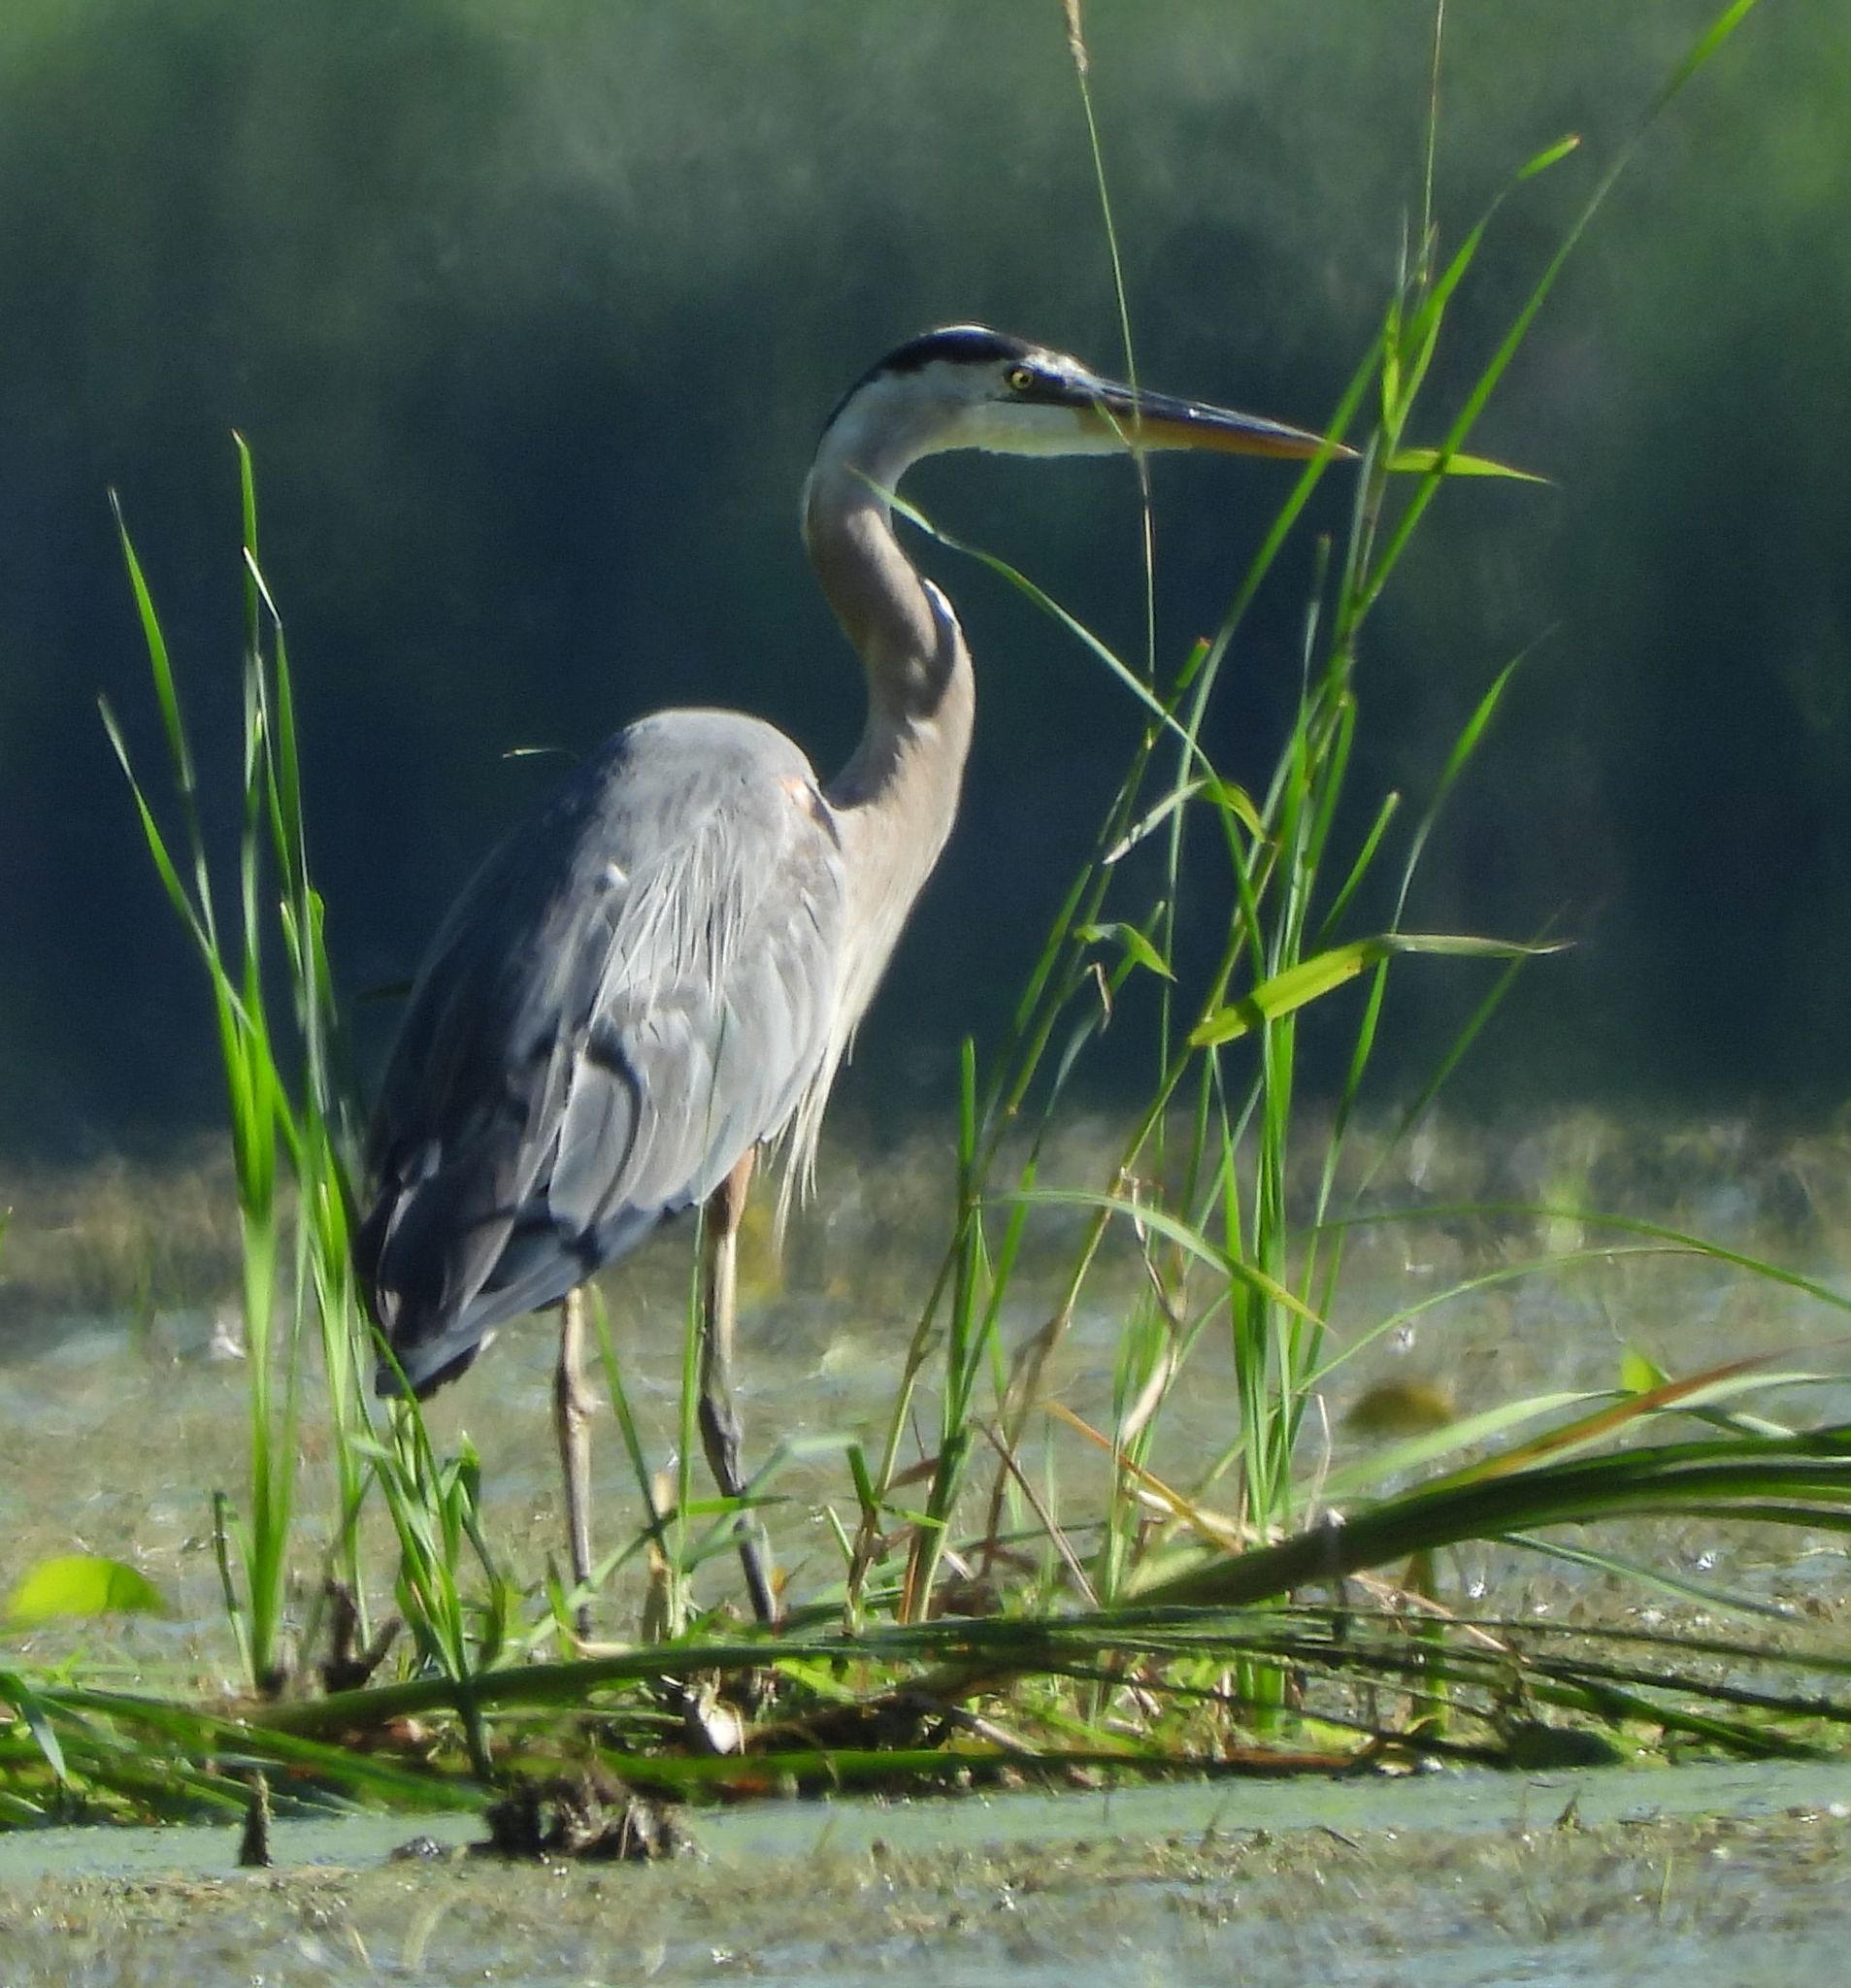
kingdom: Animalia
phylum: Chordata
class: Aves
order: Pelecaniformes
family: Ardeidae
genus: Ardea
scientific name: Ardea herodias
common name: Great blue heron
